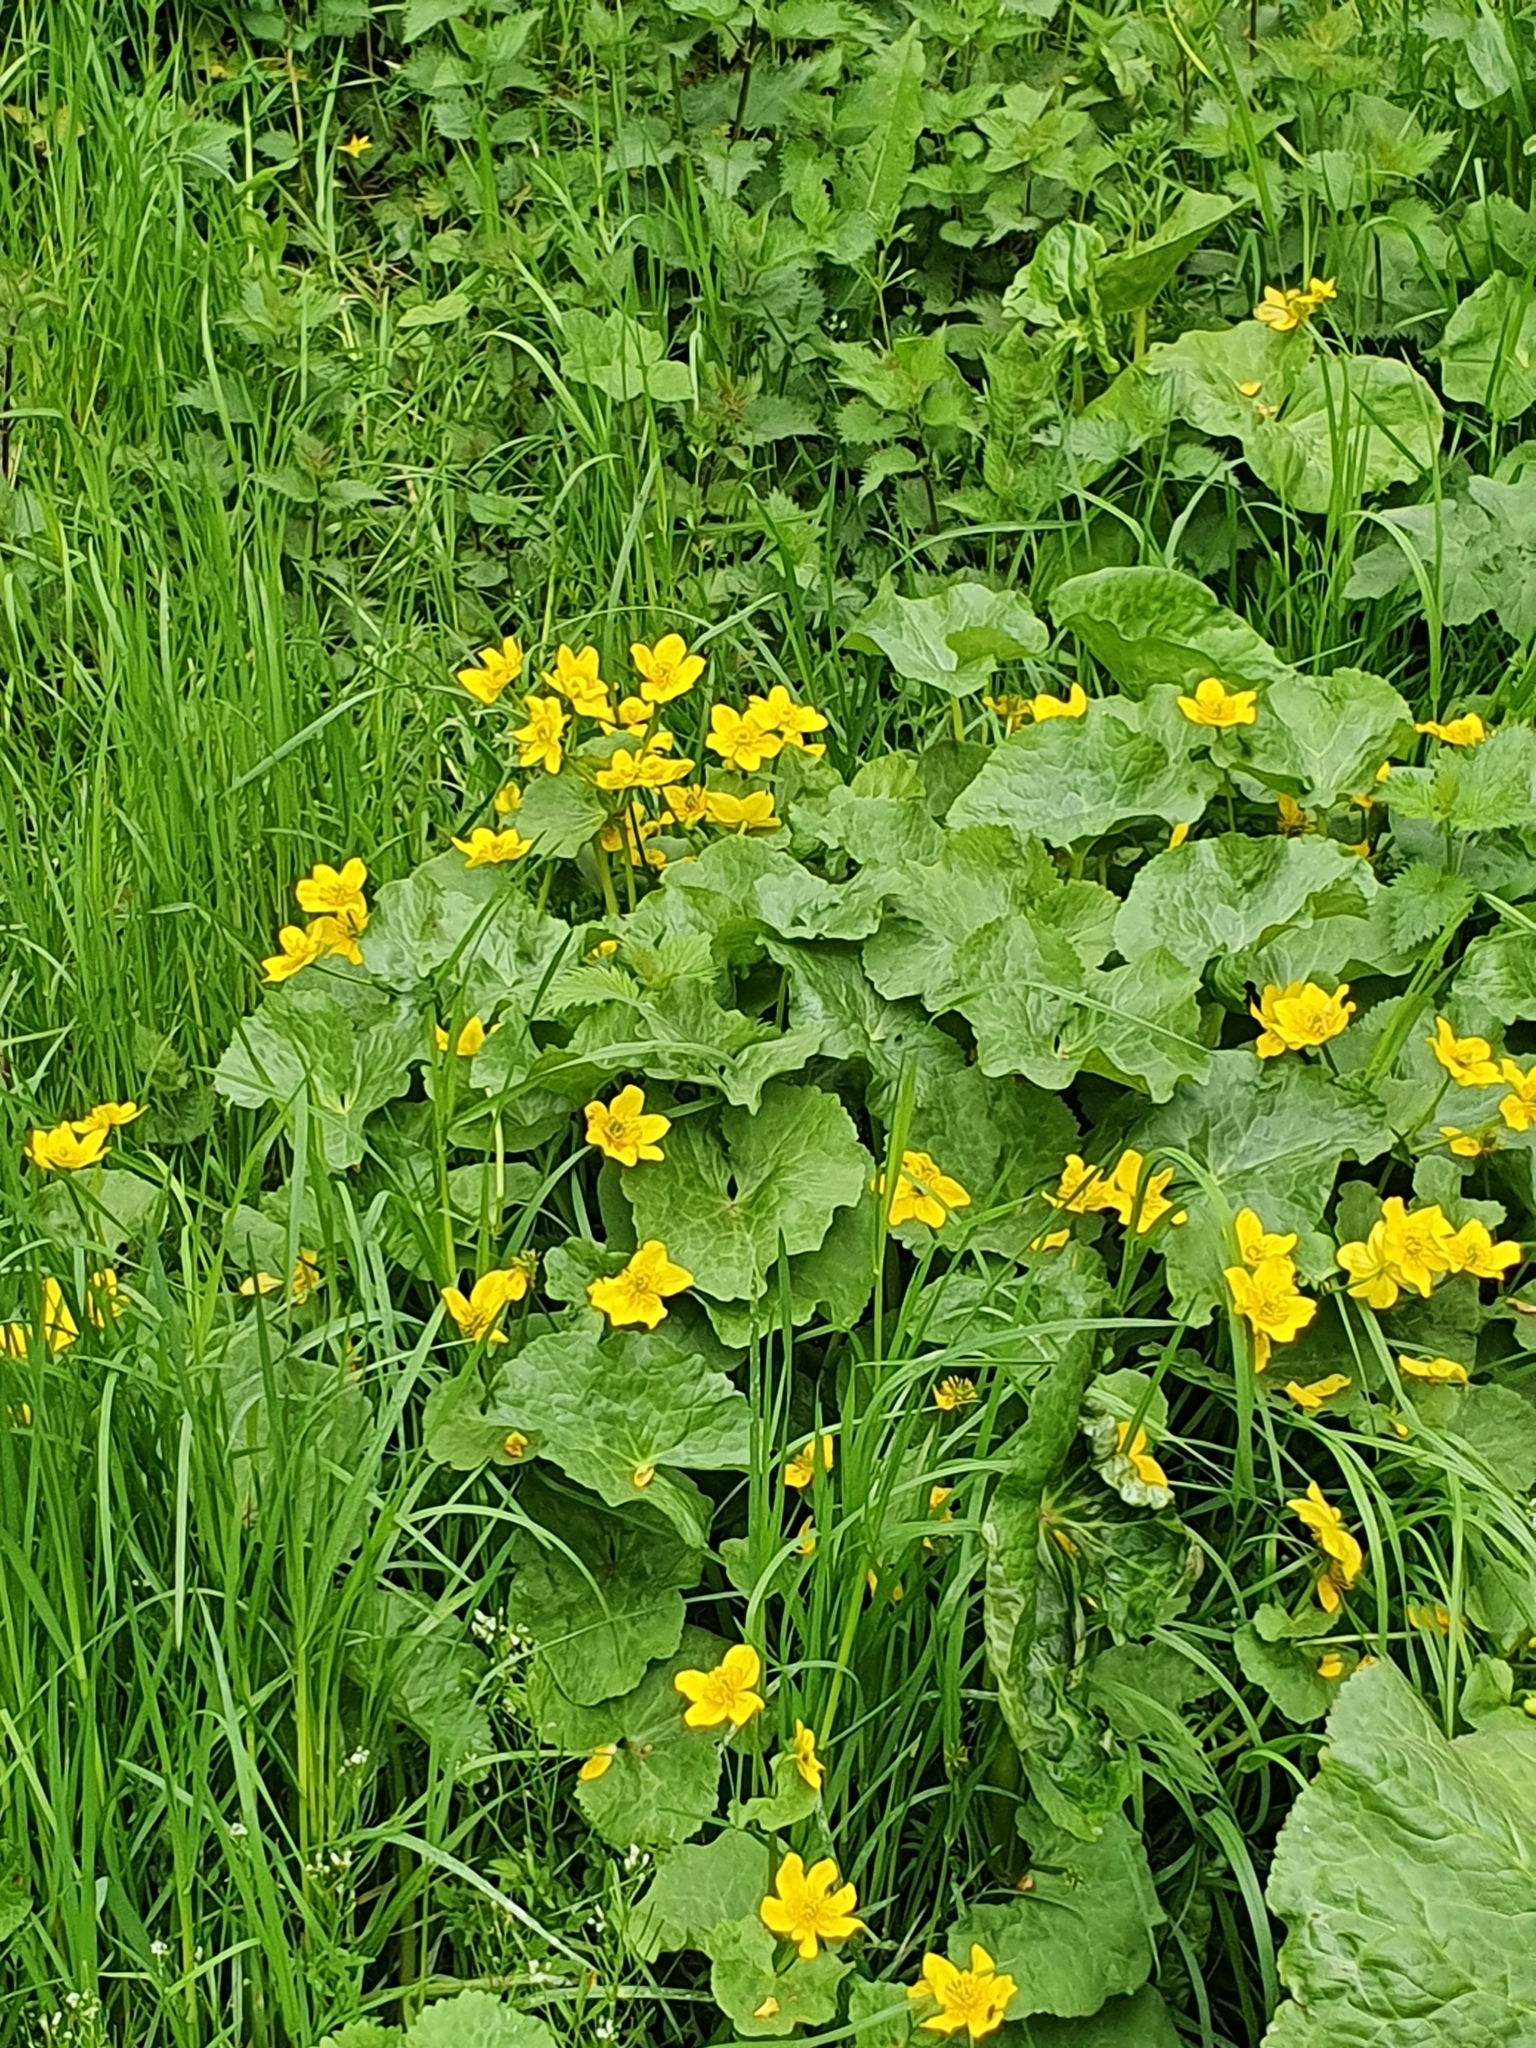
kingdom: Plantae
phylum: Tracheophyta
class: Magnoliopsida
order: Ranunculales
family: Ranunculaceae
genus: Caltha
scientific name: Caltha palustris
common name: Marsh marigold
